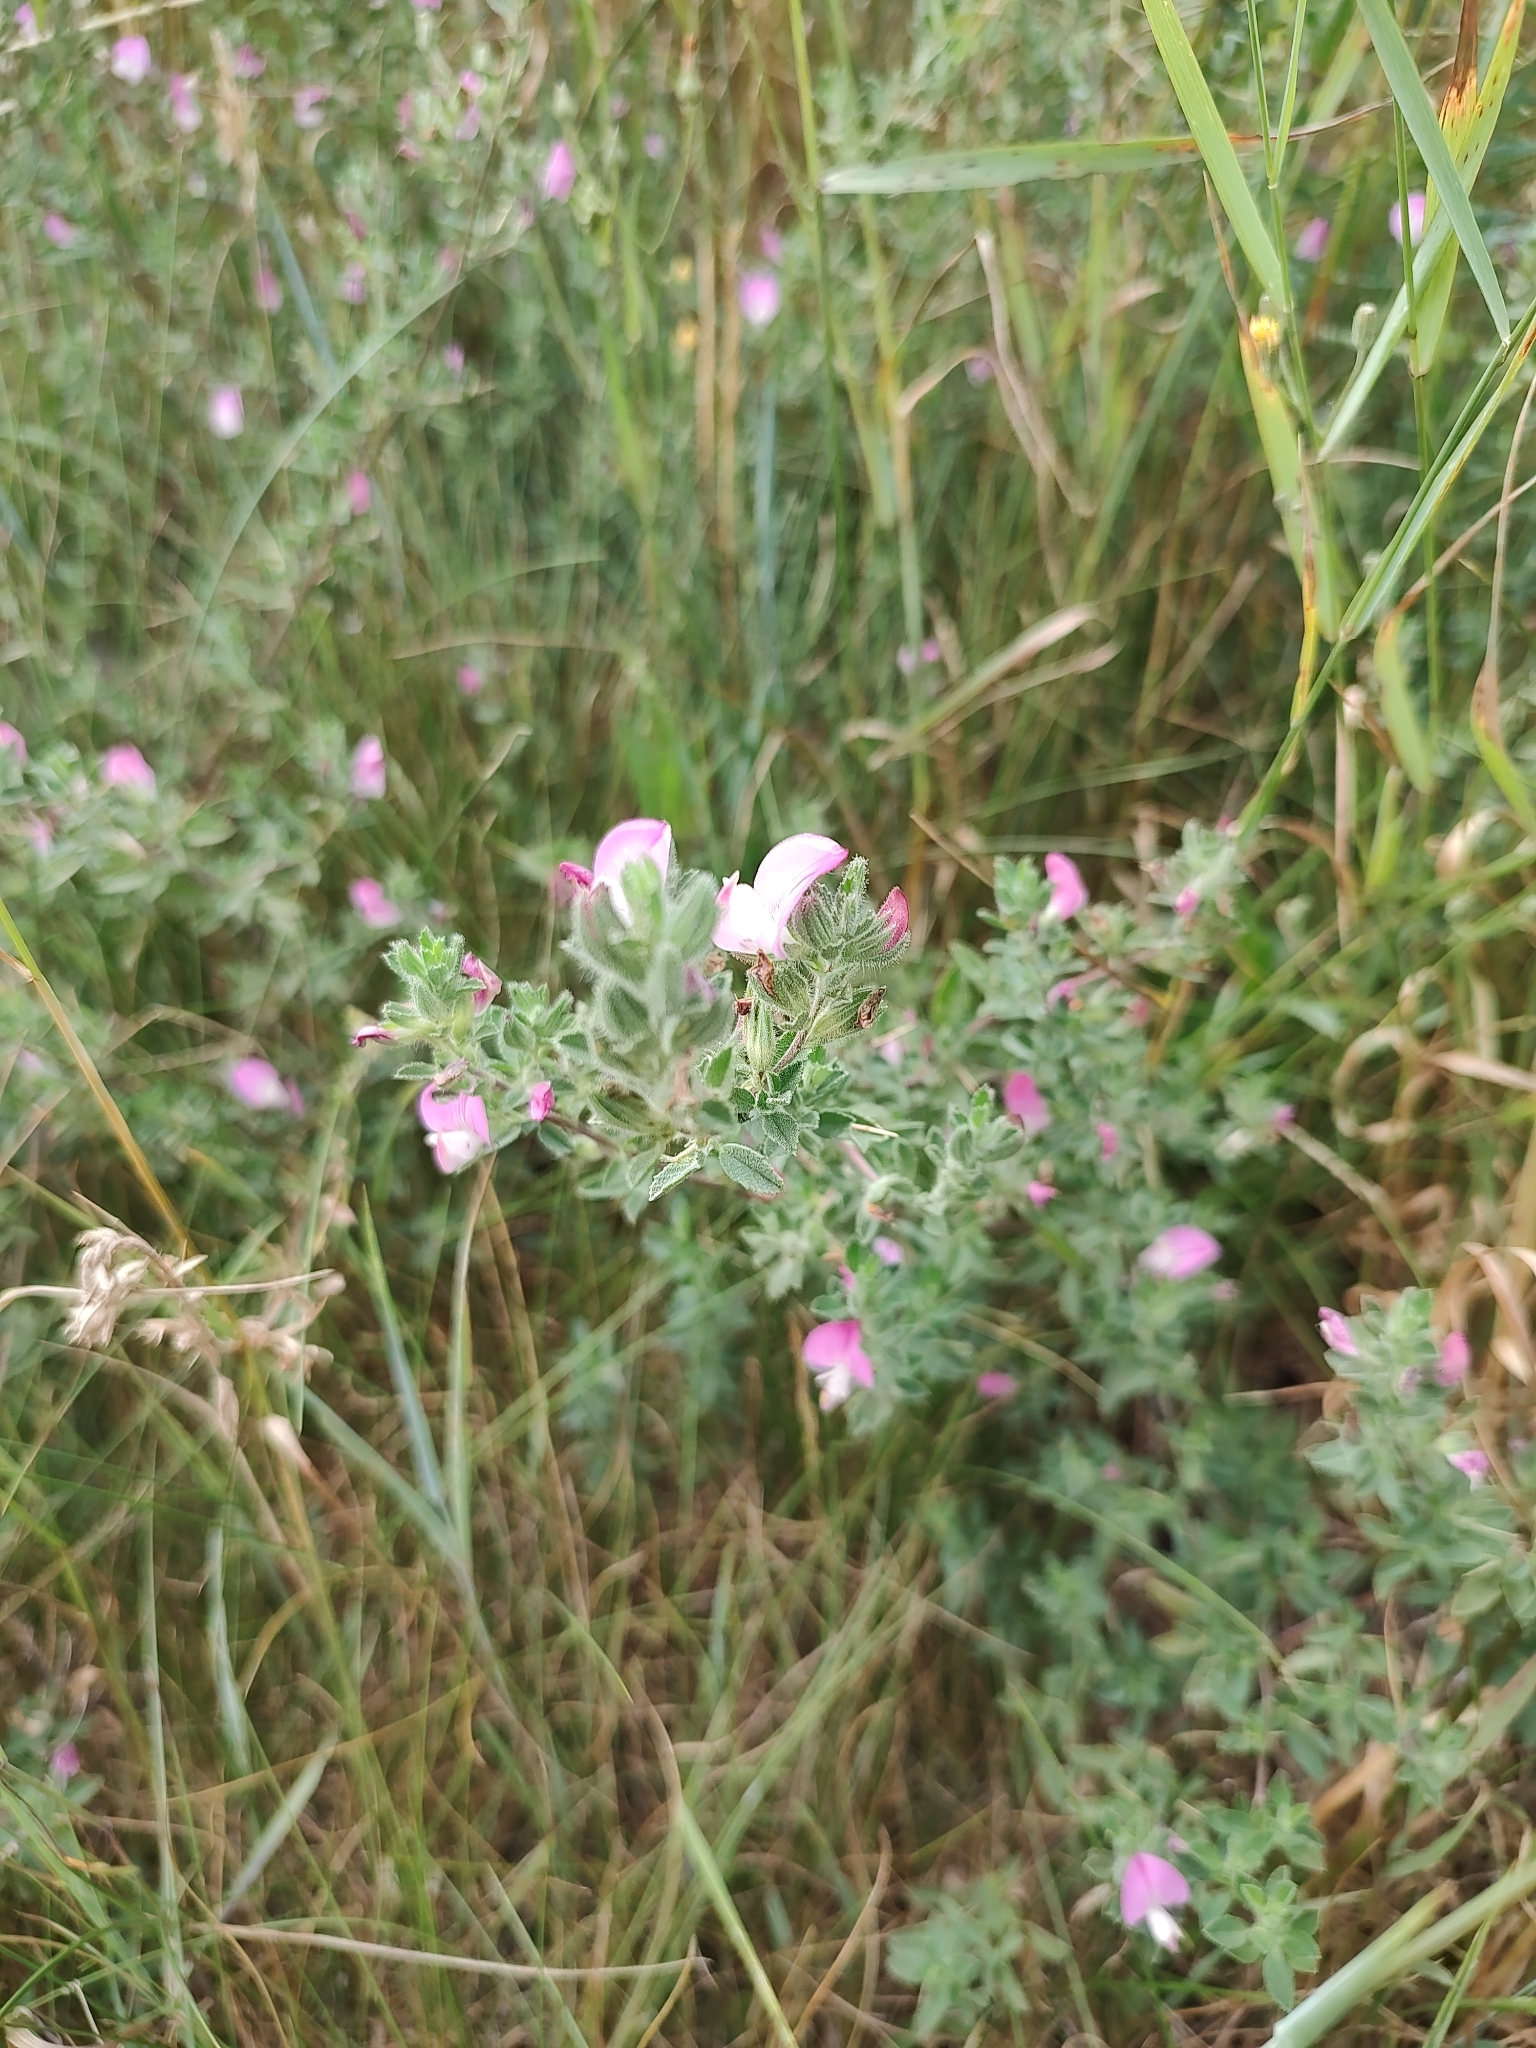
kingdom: Plantae
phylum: Tracheophyta
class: Magnoliopsida
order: Fabales
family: Fabaceae
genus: Ononis
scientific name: Ononis spinosa
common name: Spiny restharrow
